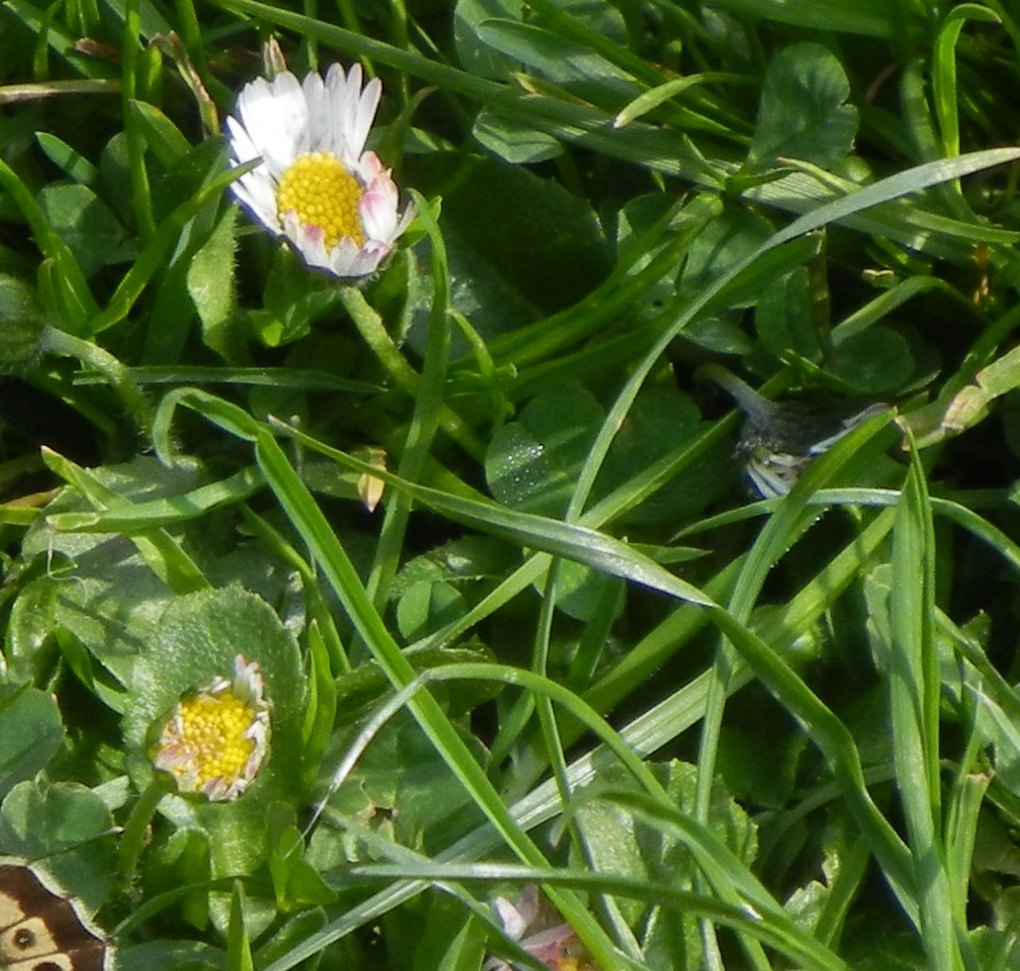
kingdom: Plantae
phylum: Tracheophyta
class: Magnoliopsida
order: Asterales
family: Asteraceae
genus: Bellis
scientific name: Bellis perennis
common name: Lawndaisy
